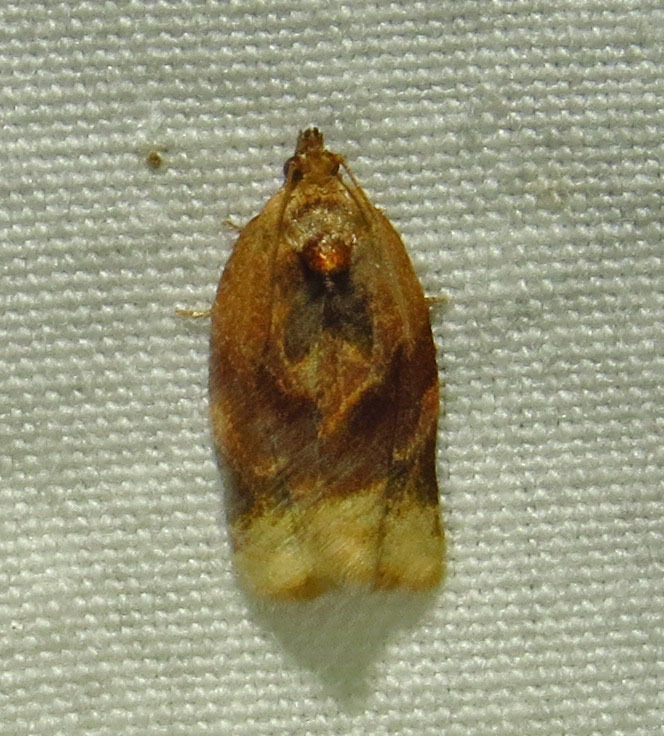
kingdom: Animalia
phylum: Arthropoda
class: Insecta
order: Lepidoptera
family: Tortricidae
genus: Argyrotaenia
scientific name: Argyrotaenia velutinana
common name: Red-banded leafroller moth
